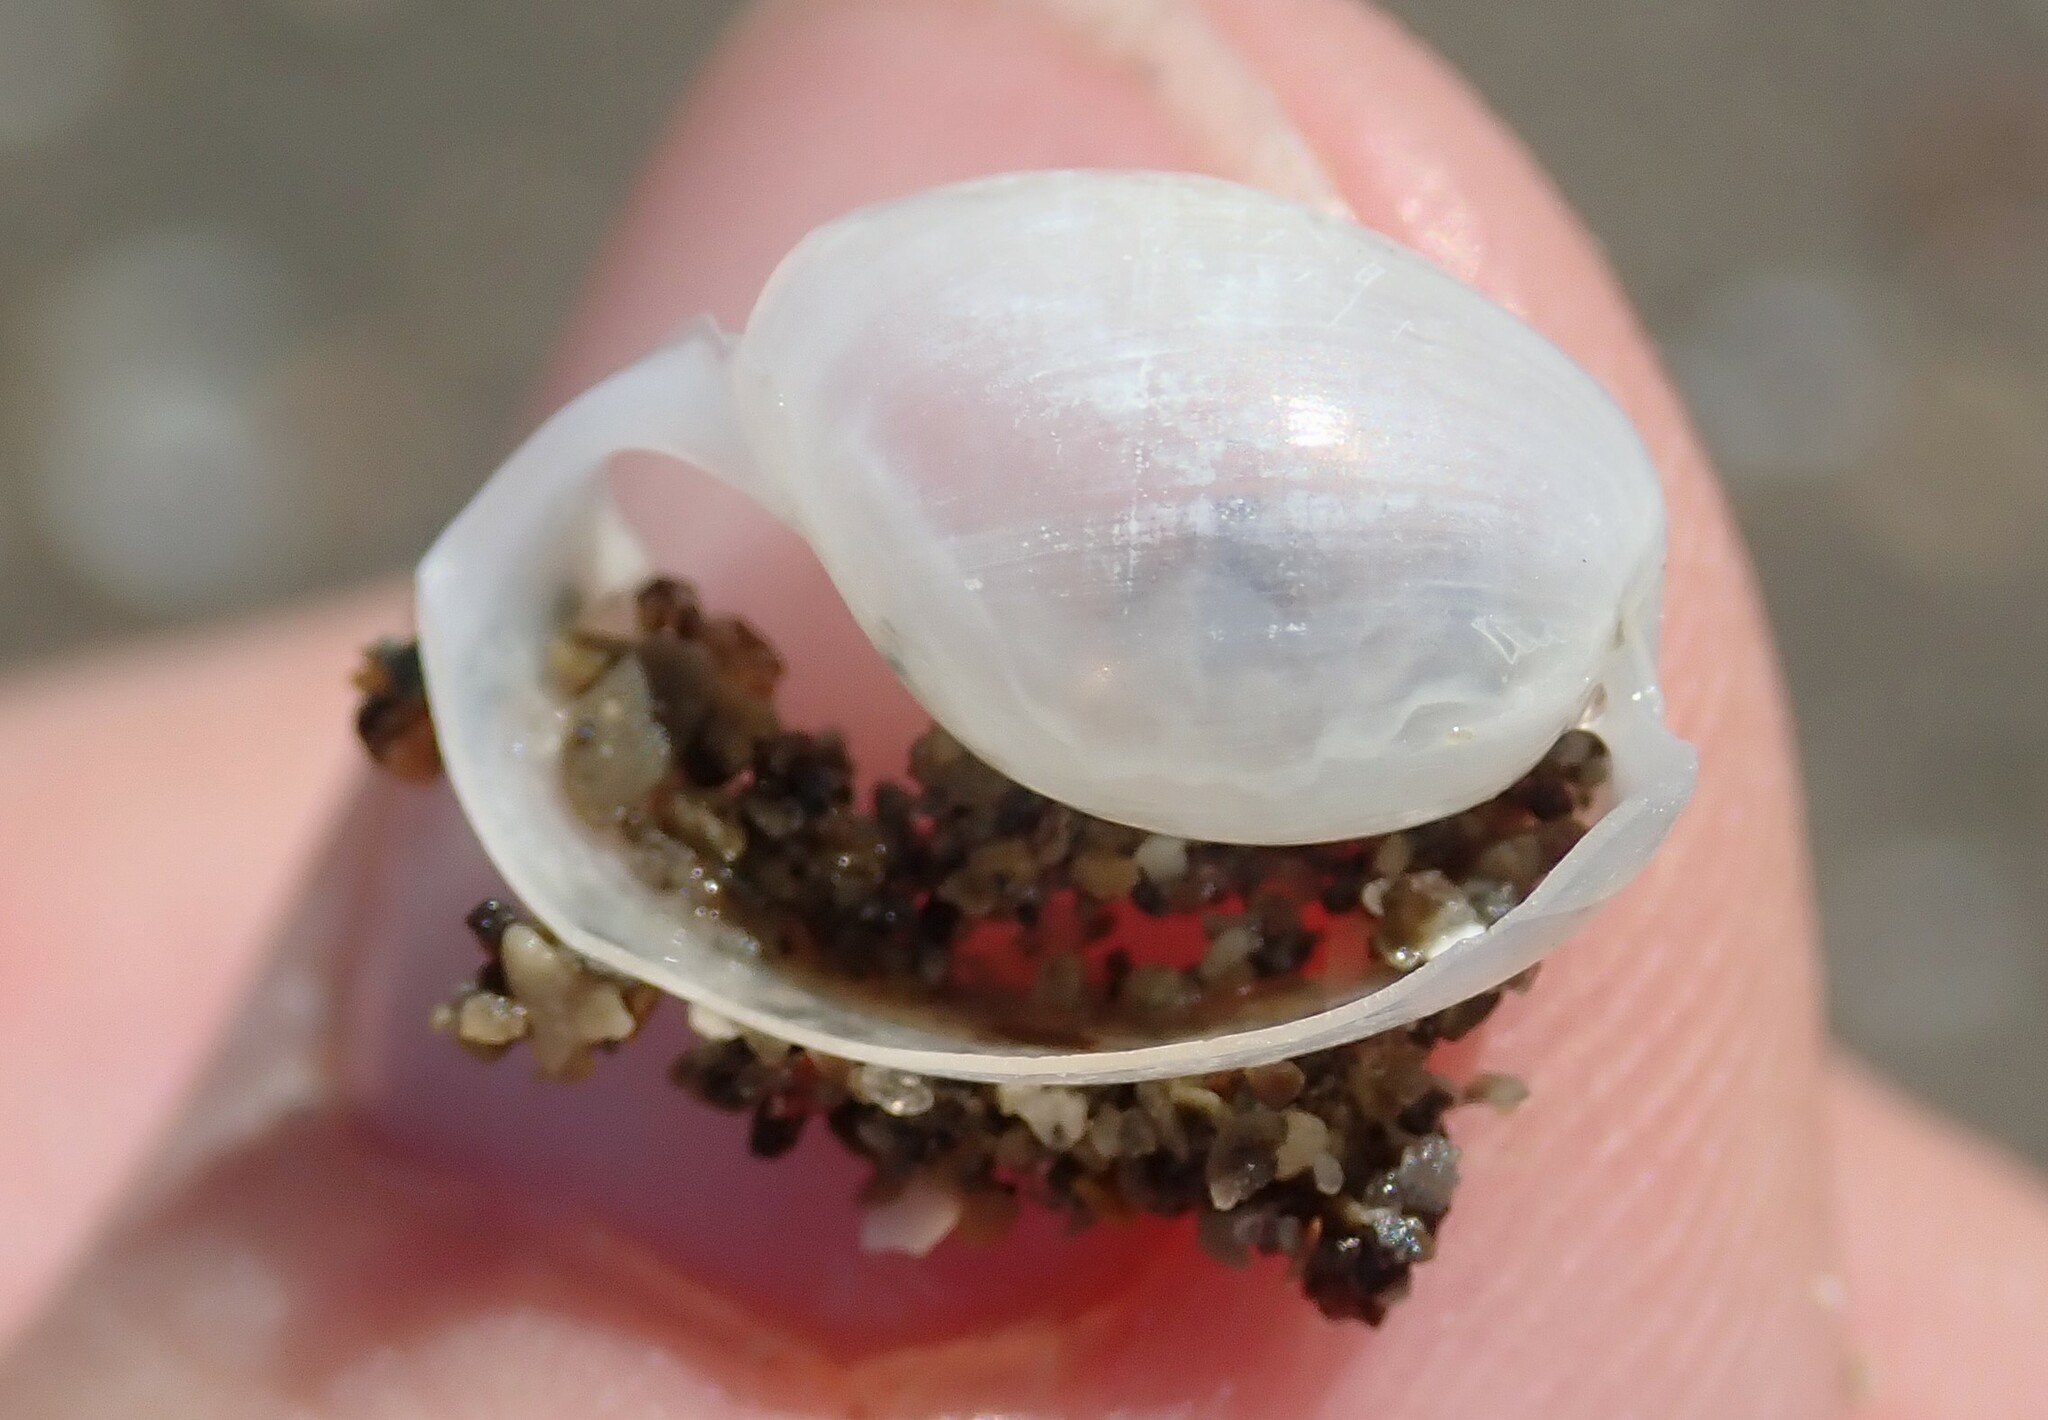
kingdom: Animalia
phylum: Mollusca
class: Gastropoda
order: Cephalaspidea
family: Haminoeidae
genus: Haloa
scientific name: Haloa japonica
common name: Japanese bubble snail
